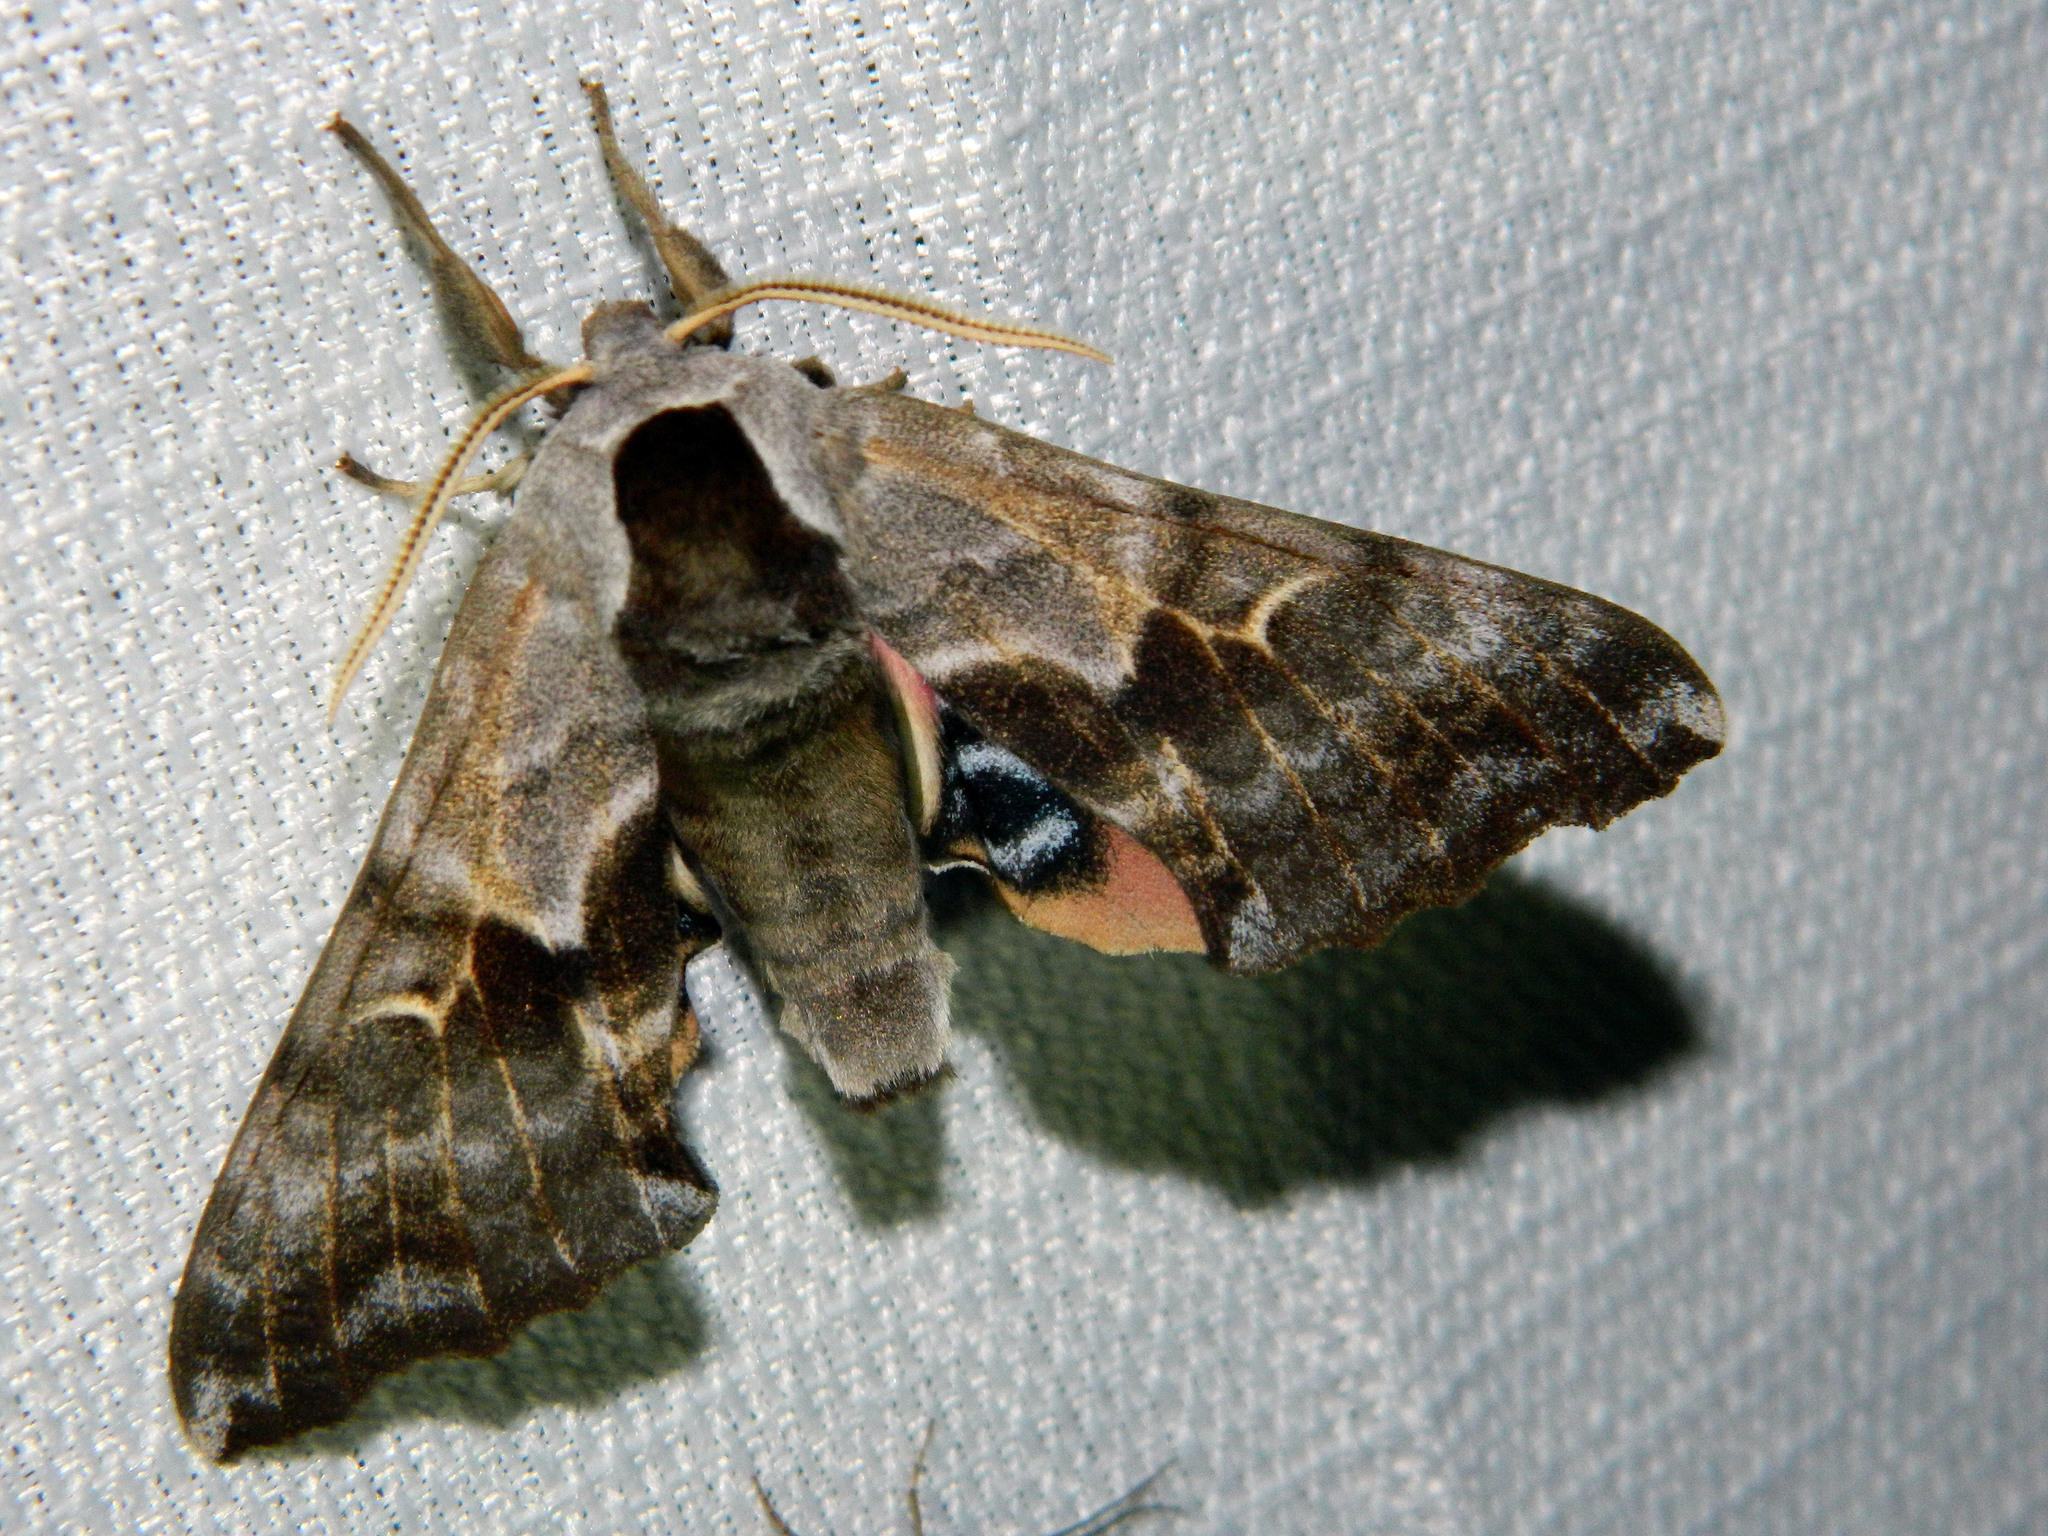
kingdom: Animalia
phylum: Arthropoda
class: Insecta
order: Lepidoptera
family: Sphingidae
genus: Smerinthus
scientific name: Smerinthus cerisyi
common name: Cerisy's sphinx moth
